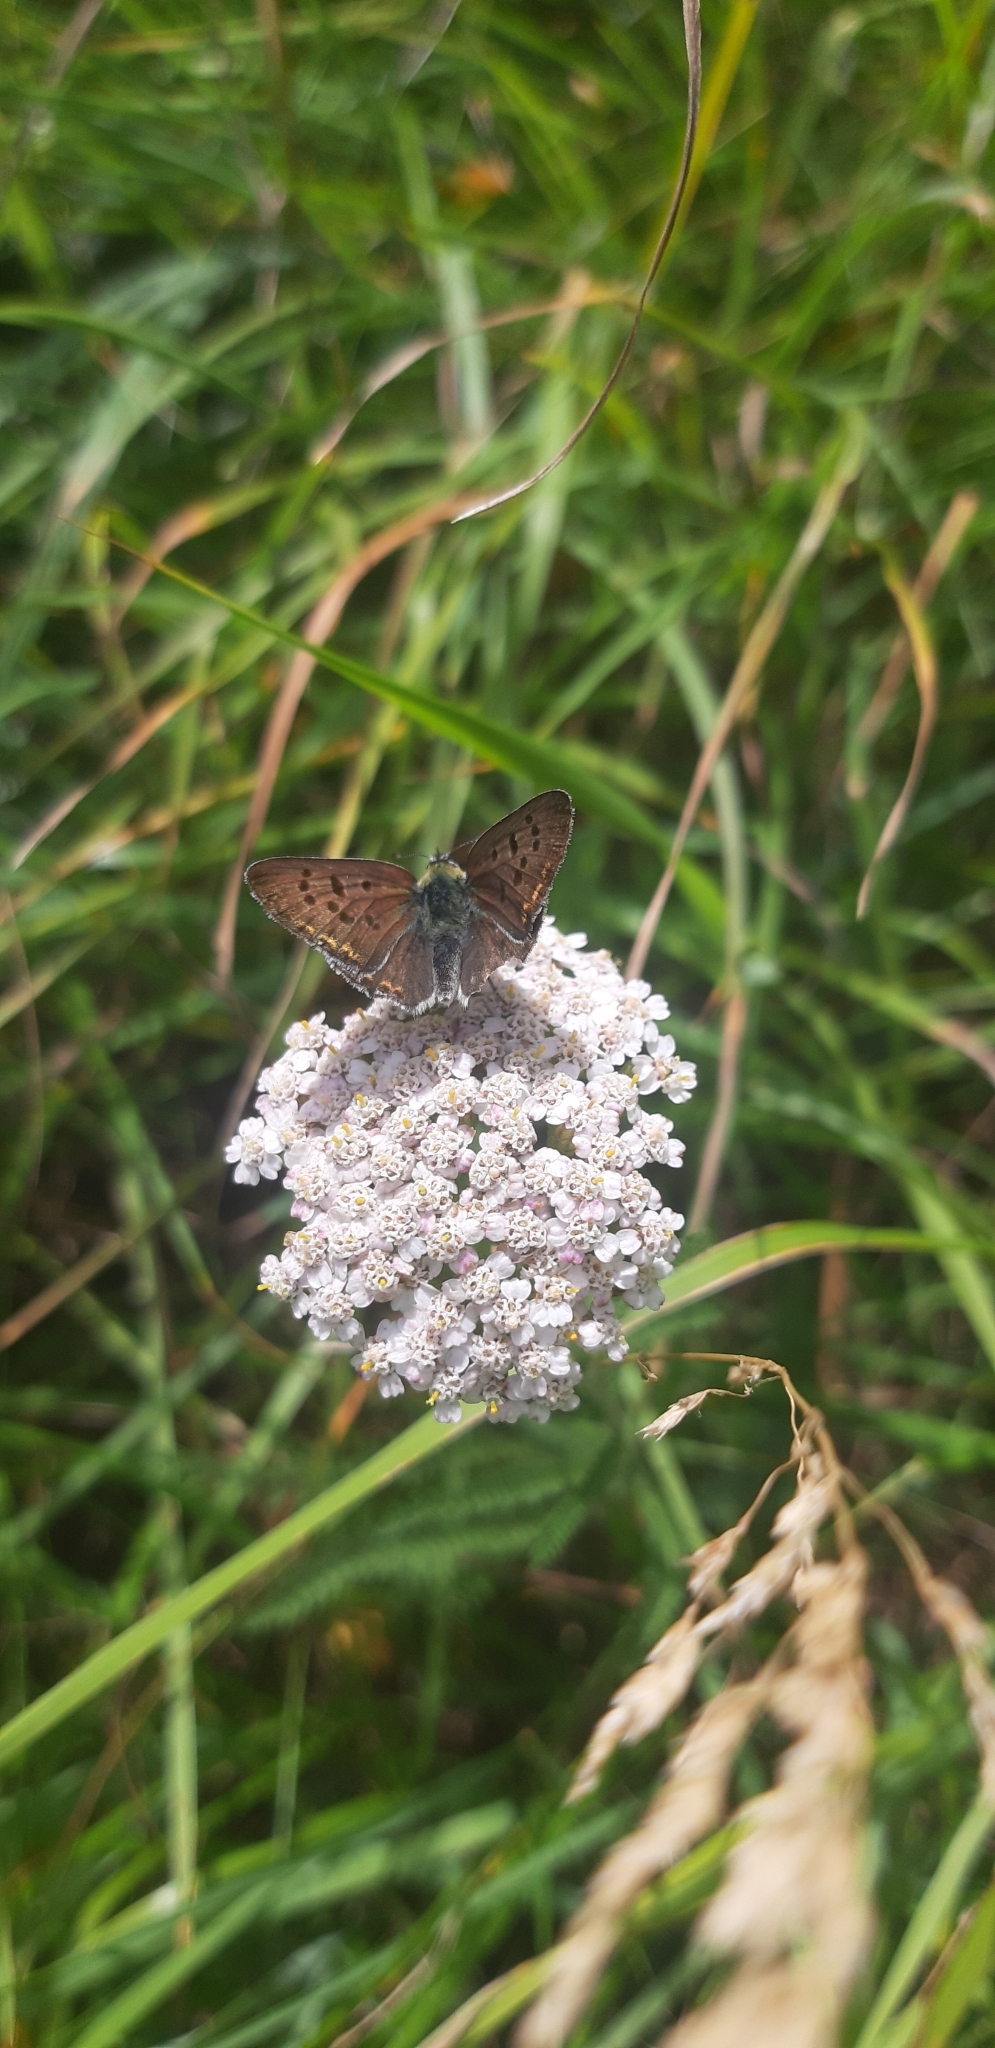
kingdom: Animalia
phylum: Arthropoda
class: Insecta
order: Lepidoptera
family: Lycaenidae
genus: Loweia
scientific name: Loweia tityrus
